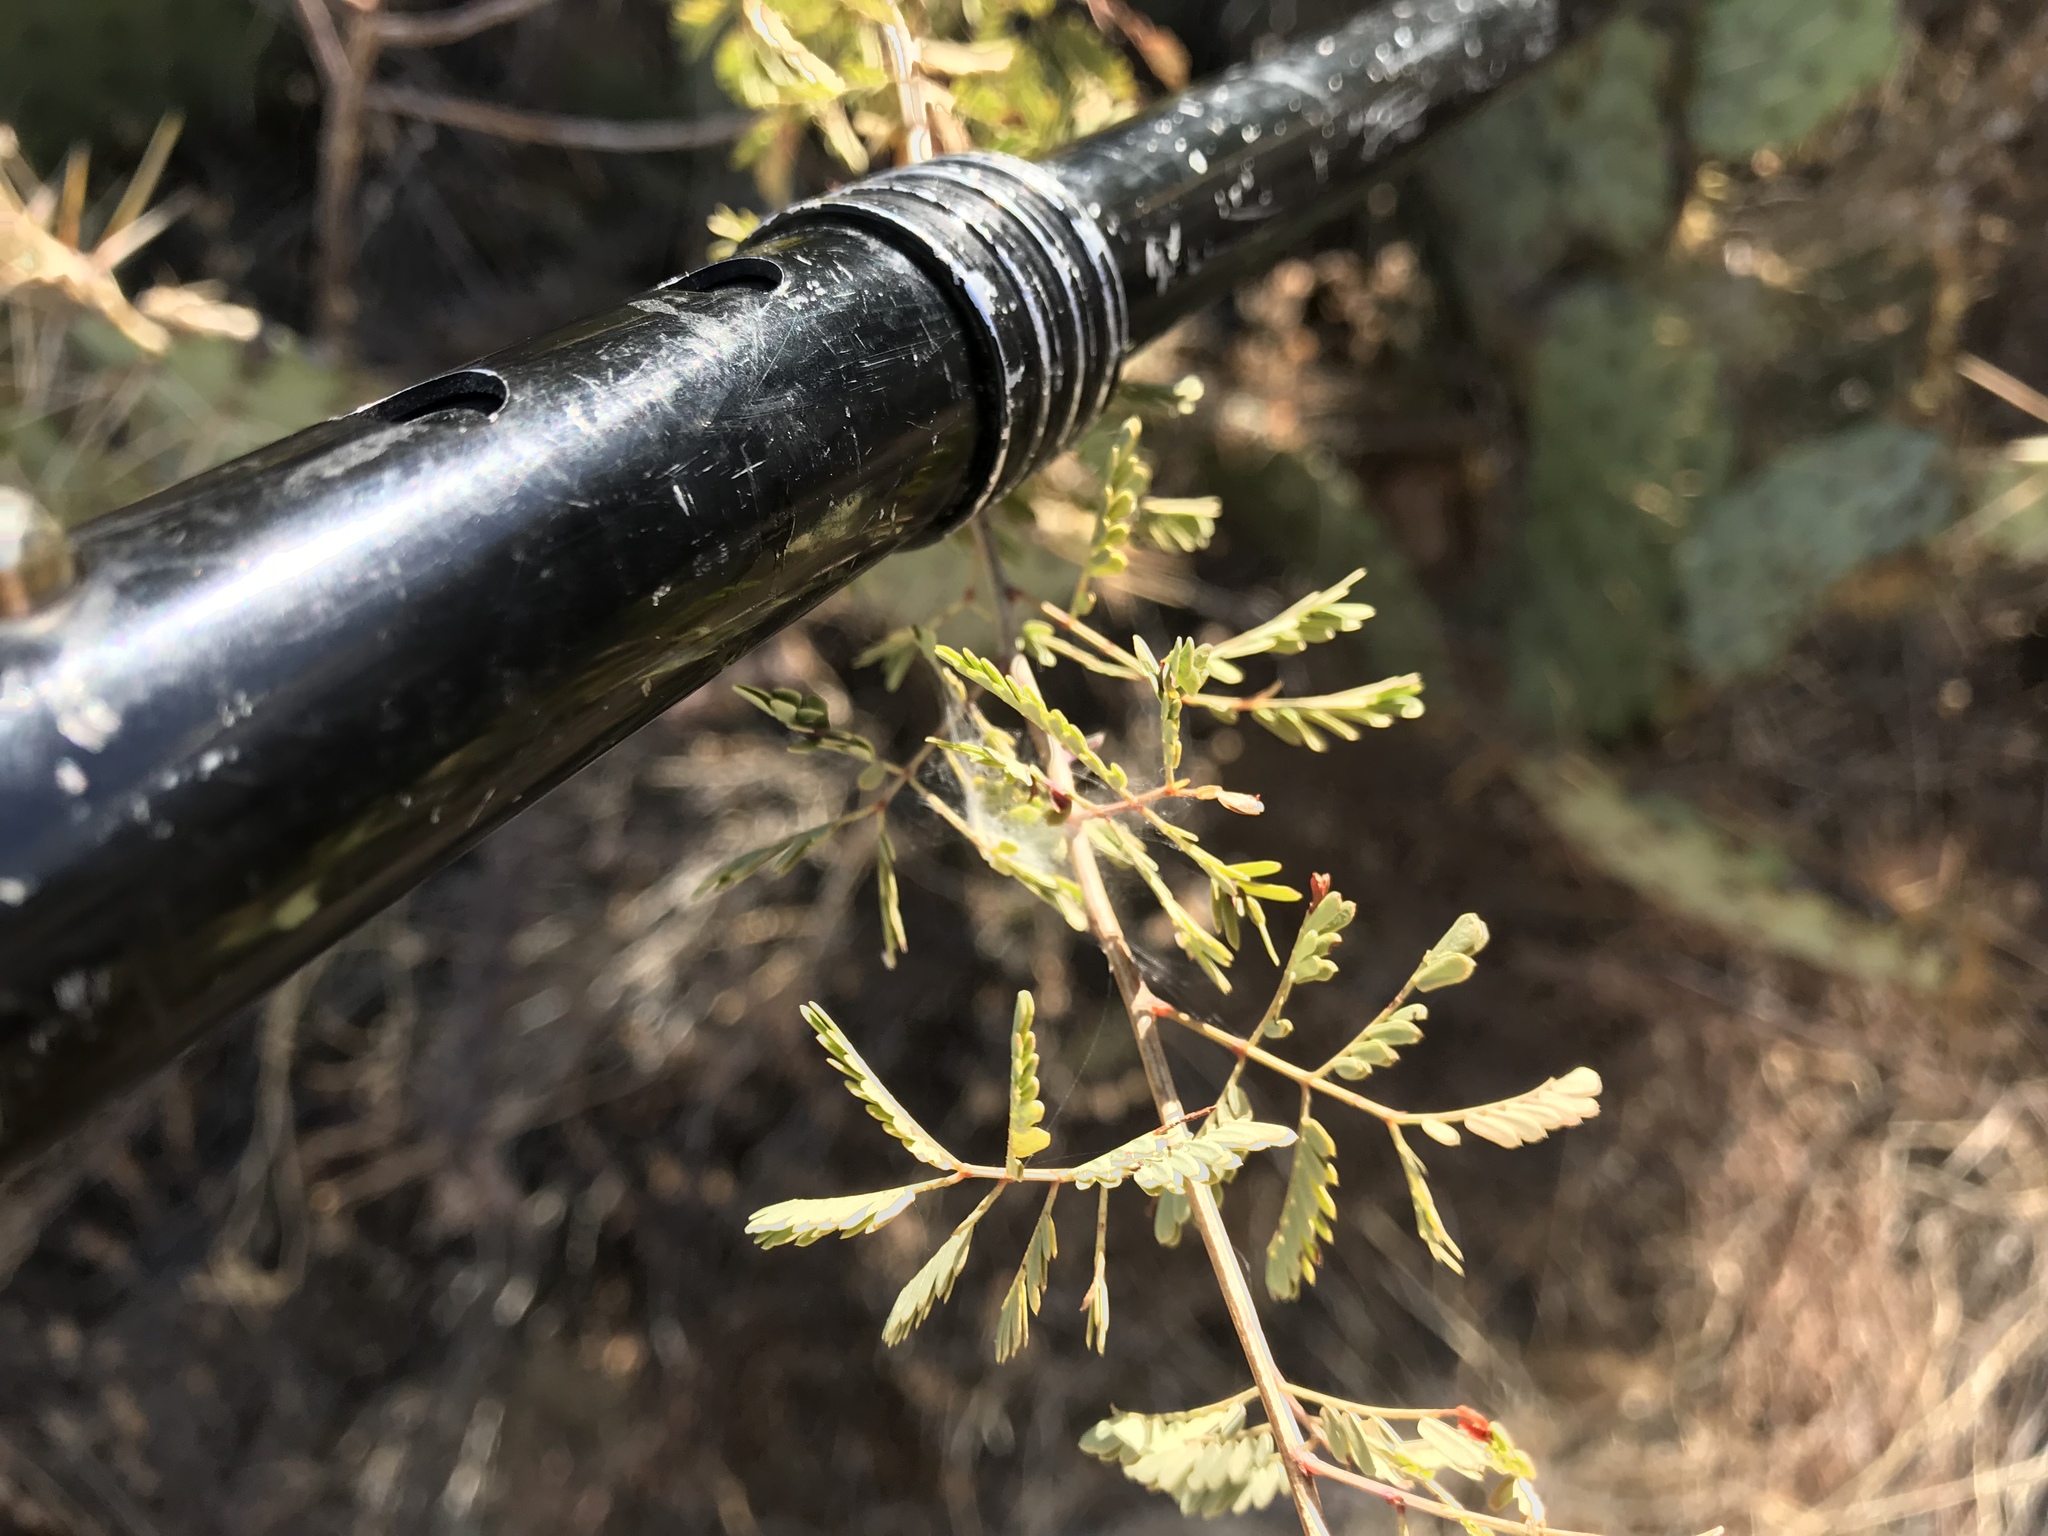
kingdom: Plantae
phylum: Tracheophyta
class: Magnoliopsida
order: Fabales
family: Fabaceae
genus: Senegalia
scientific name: Senegalia greggii
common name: Texas-mimosa
